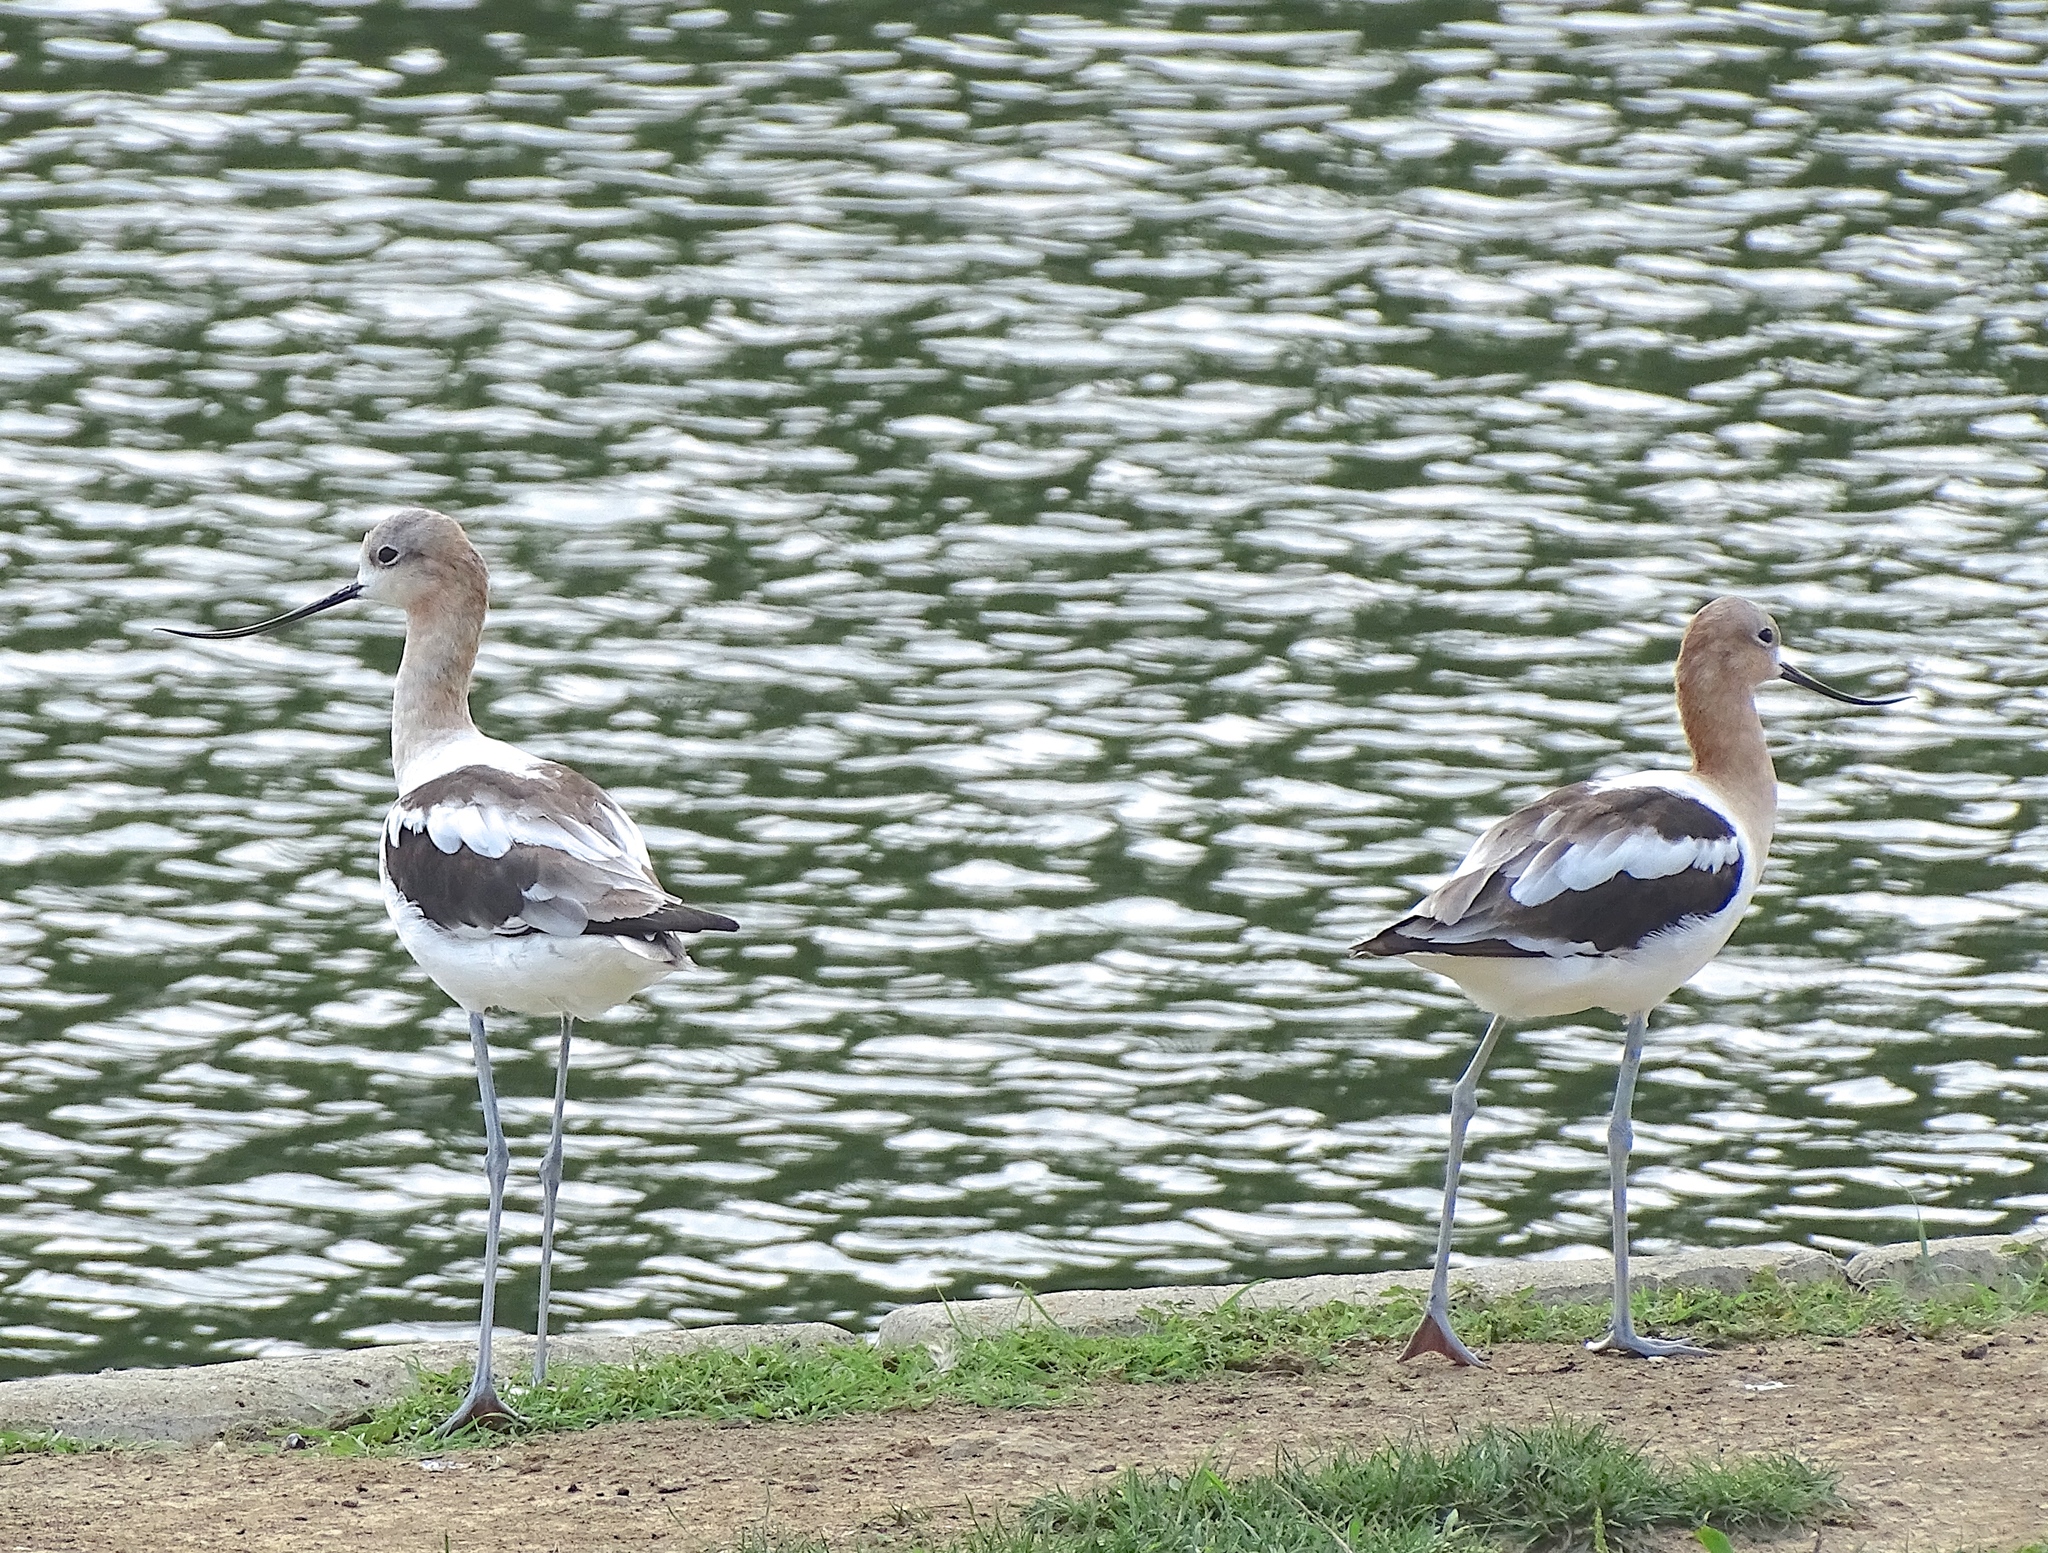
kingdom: Animalia
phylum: Chordata
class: Aves
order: Charadriiformes
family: Recurvirostridae
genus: Recurvirostra
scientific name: Recurvirostra americana
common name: American avocet
